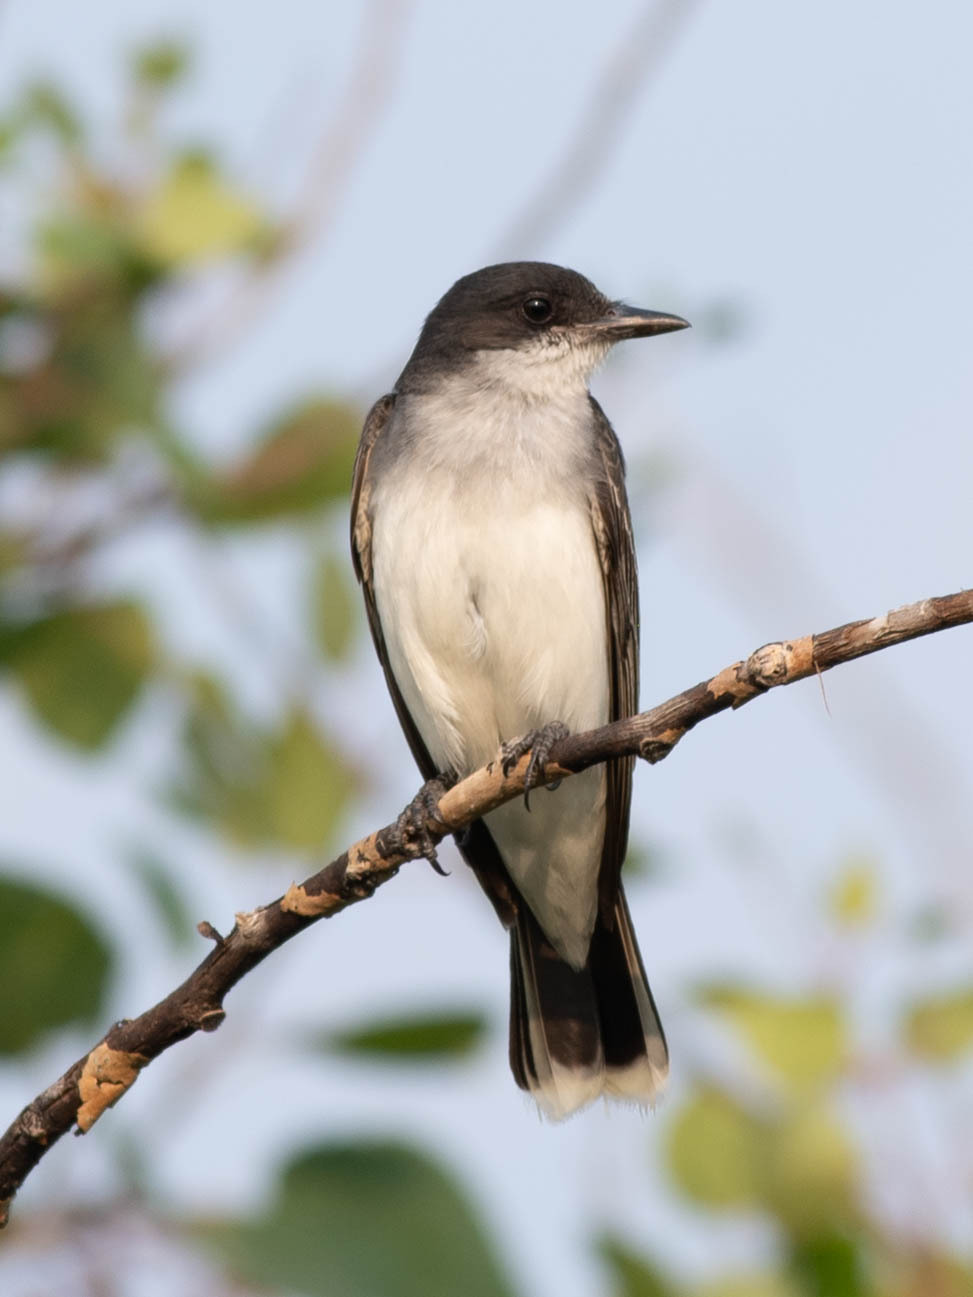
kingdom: Animalia
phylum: Chordata
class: Aves
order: Passeriformes
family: Tyrannidae
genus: Tyrannus
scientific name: Tyrannus tyrannus
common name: Eastern kingbird
